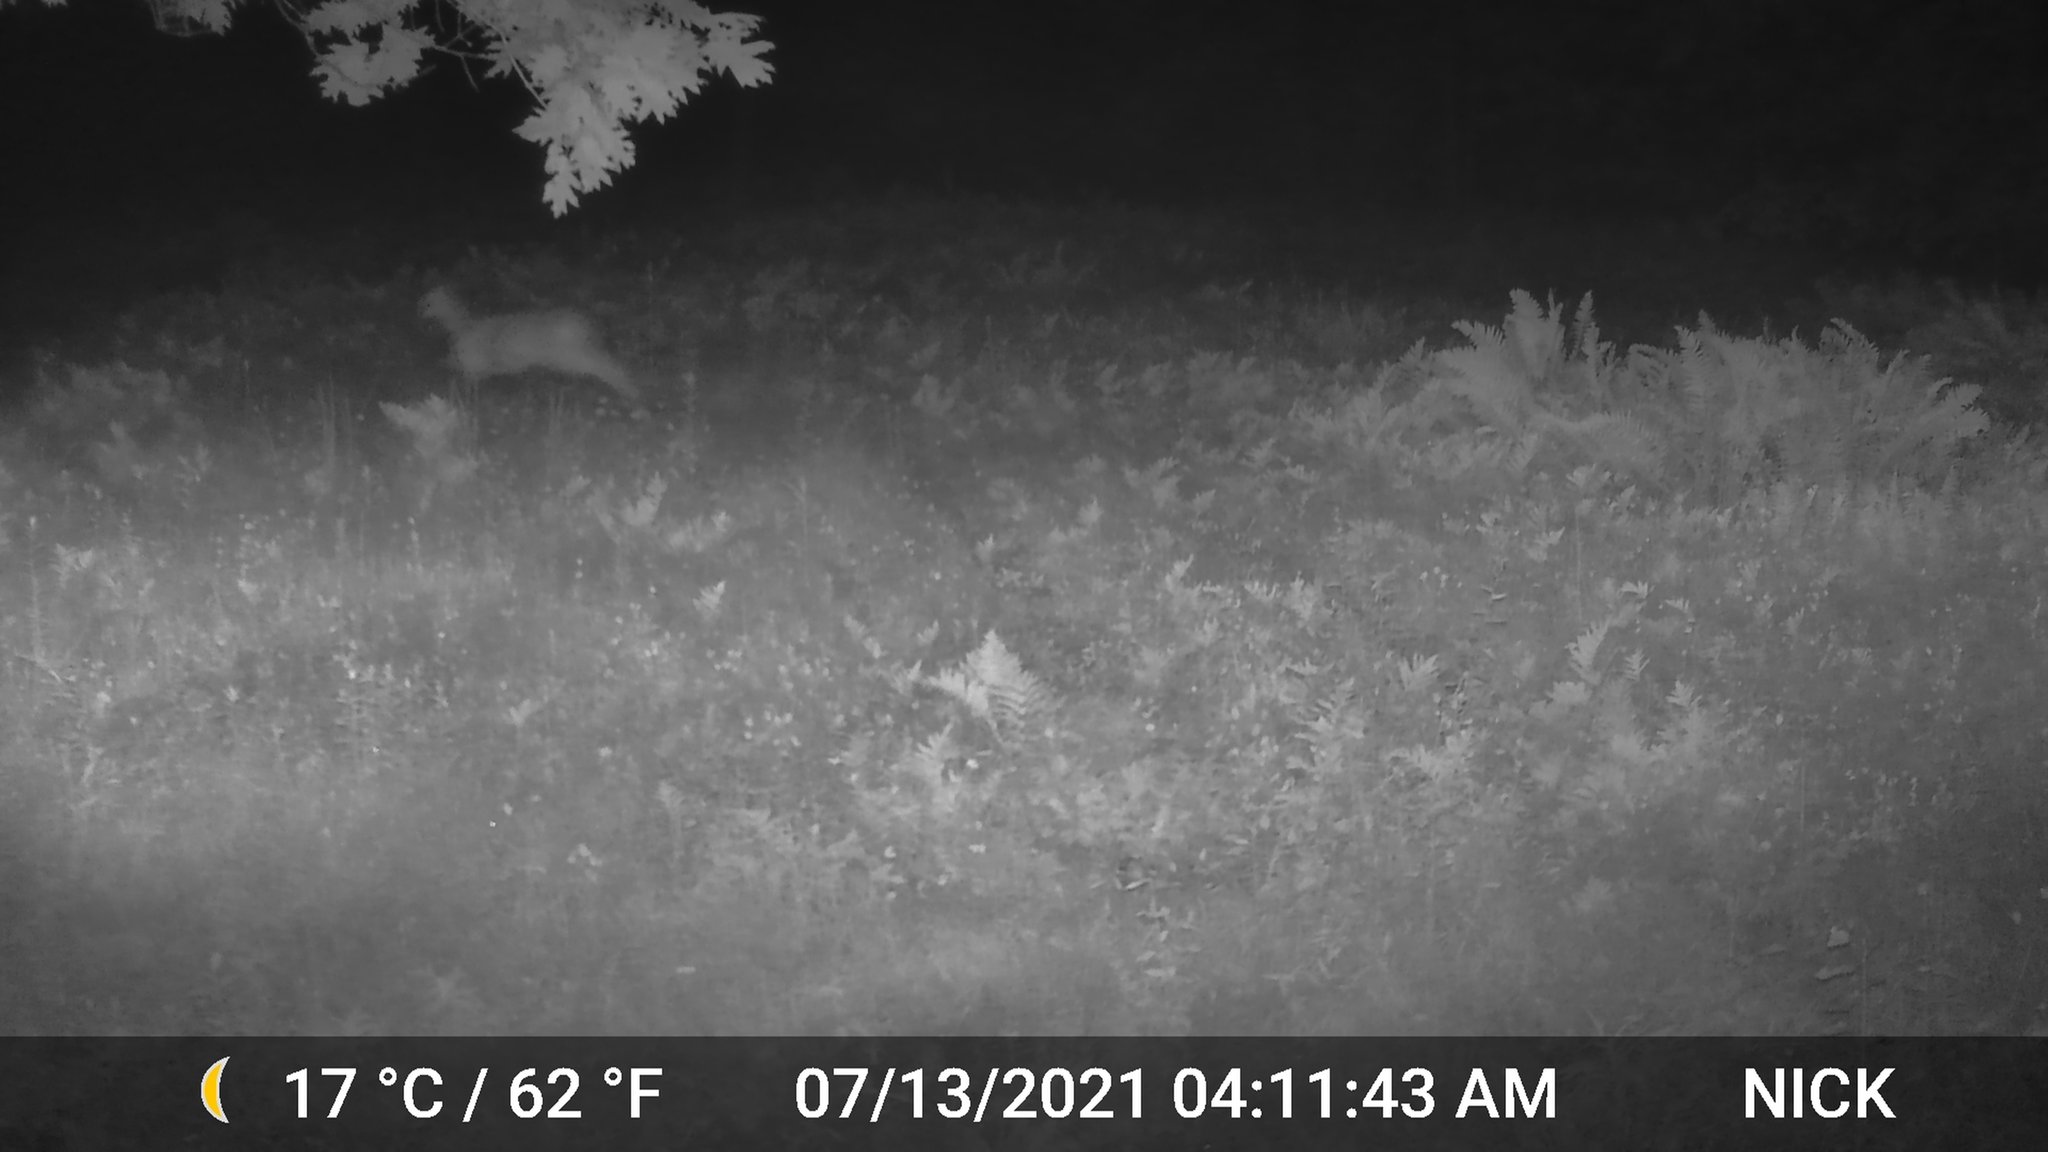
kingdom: Animalia
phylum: Chordata
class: Mammalia
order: Artiodactyla
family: Cervidae
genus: Odocoileus
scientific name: Odocoileus virginianus
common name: White-tailed deer
